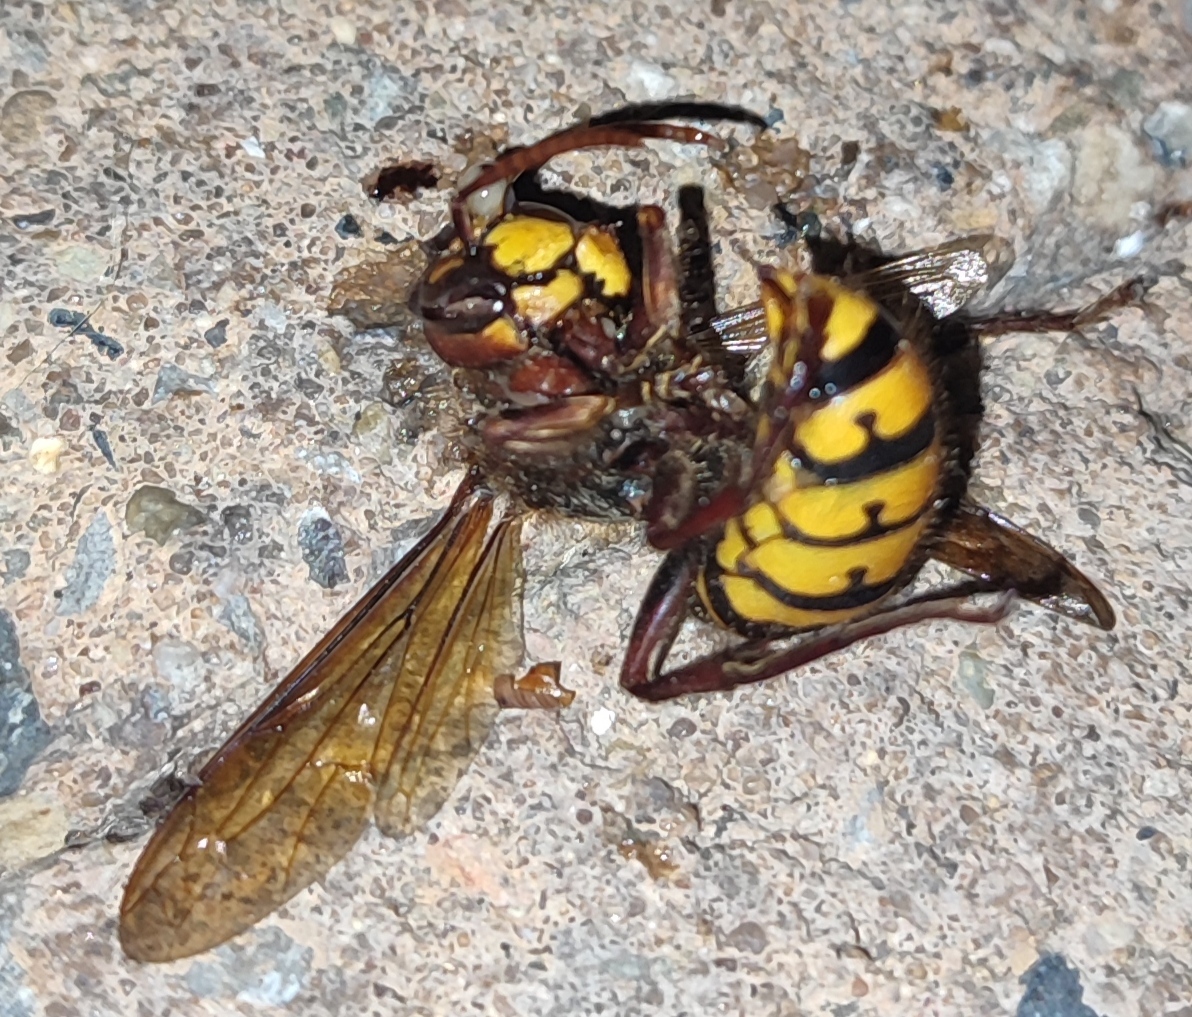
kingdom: Animalia
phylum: Arthropoda
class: Insecta
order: Hymenoptera
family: Vespidae
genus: Vespa
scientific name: Vespa crabro
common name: Hornet
